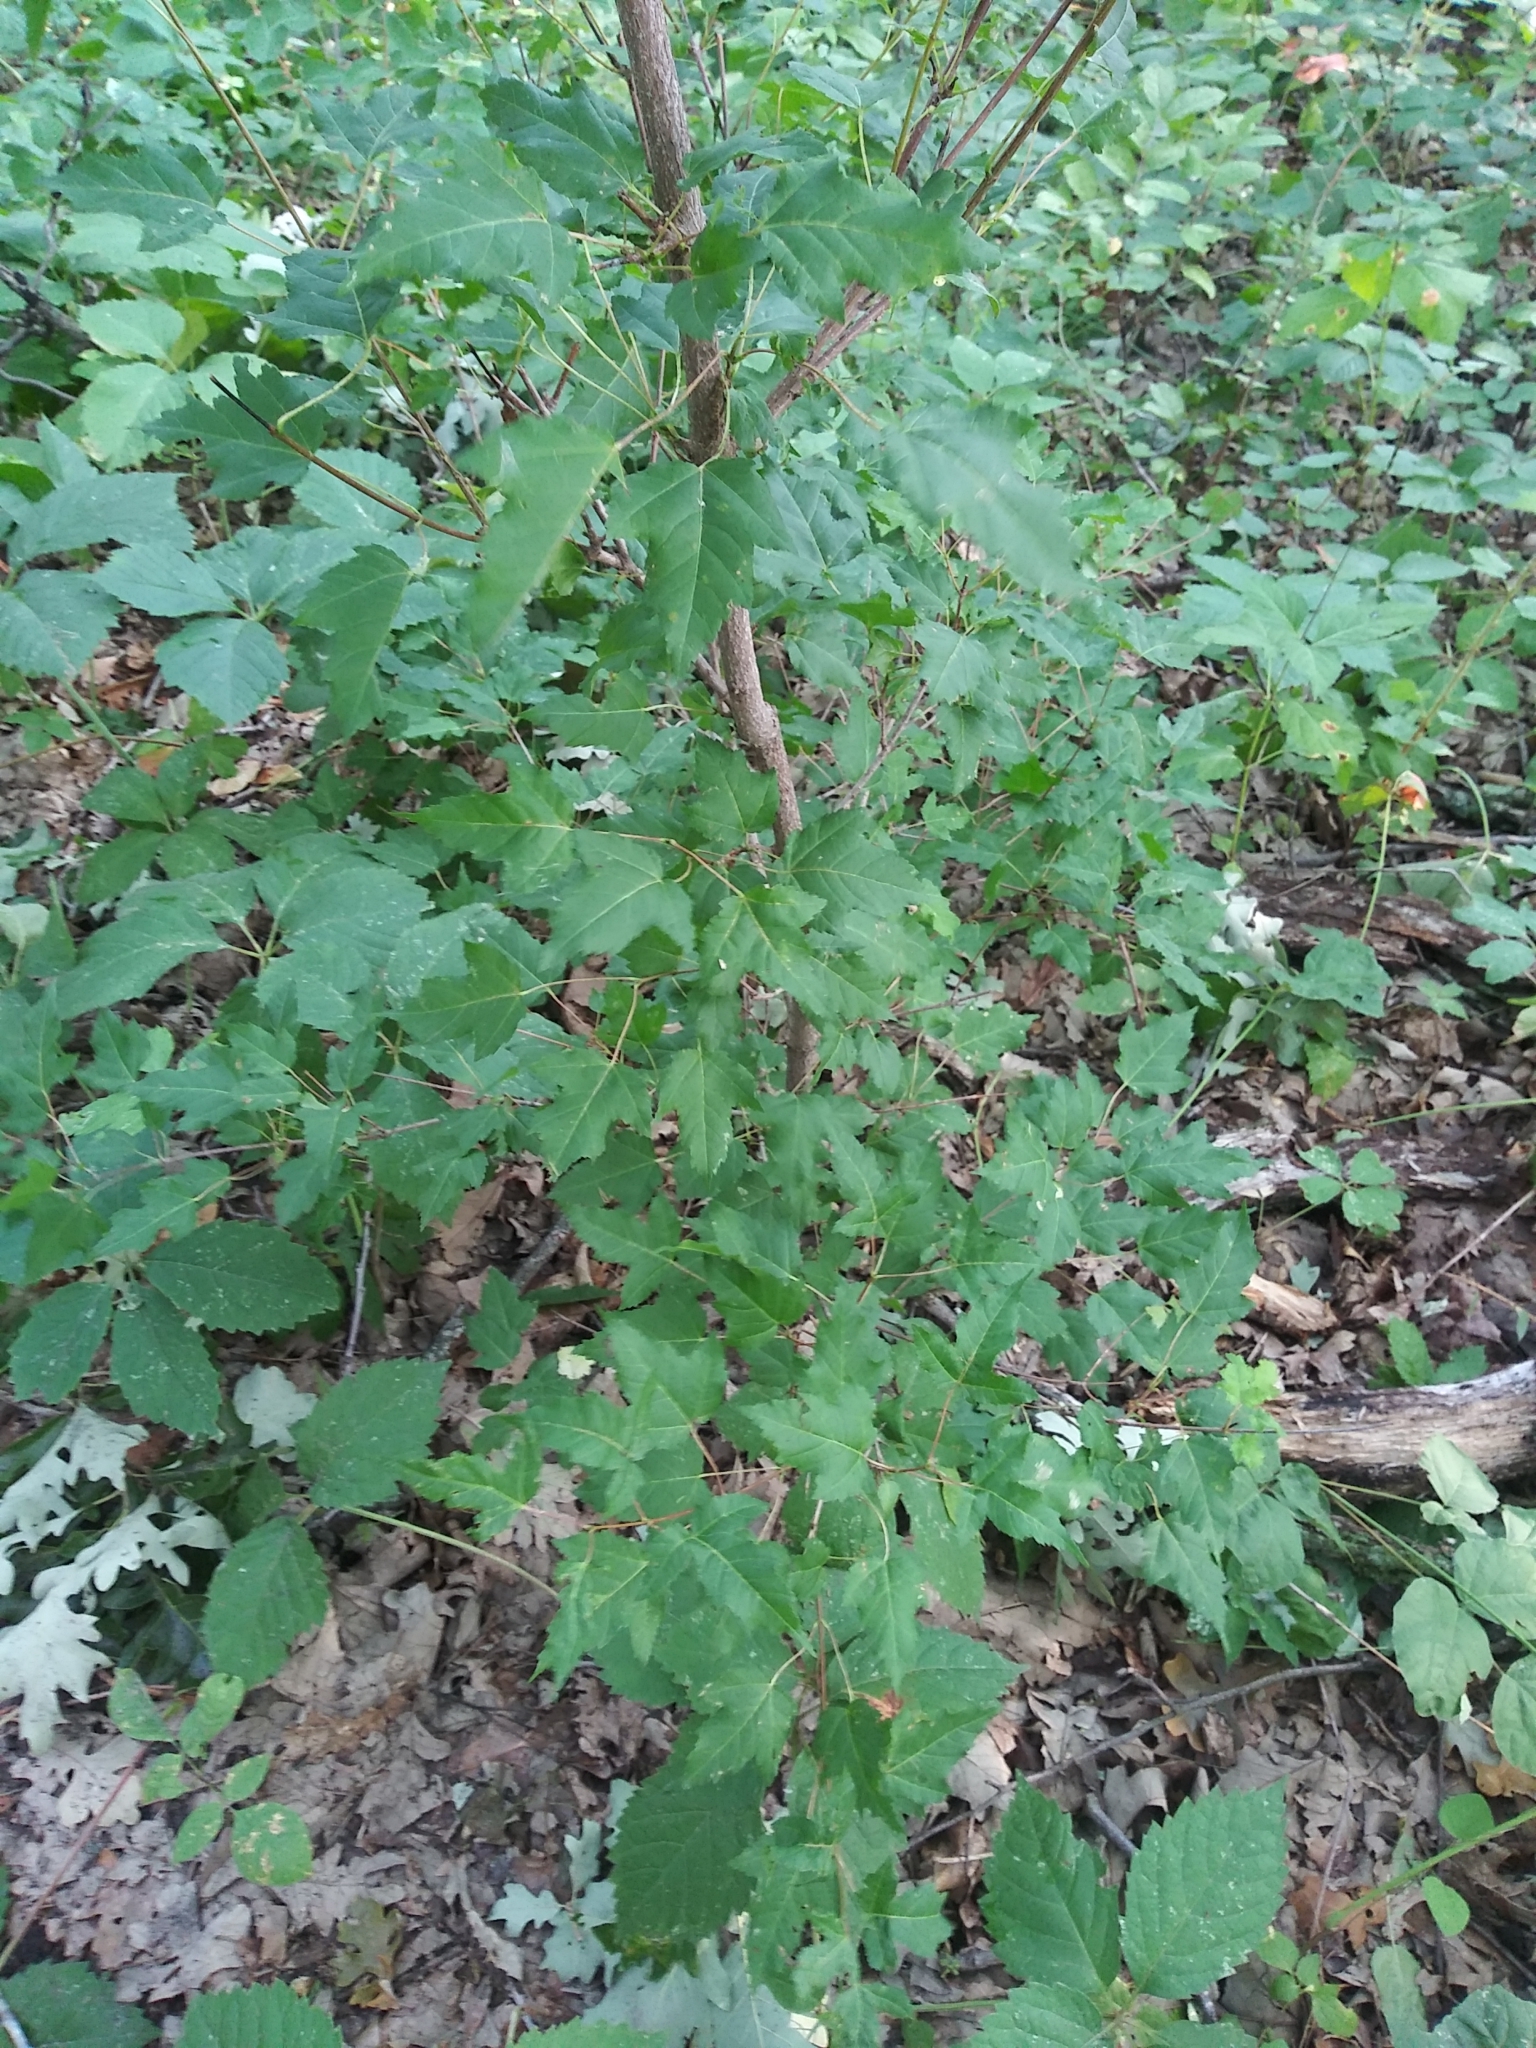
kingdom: Plantae
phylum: Tracheophyta
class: Magnoliopsida
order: Sapindales
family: Sapindaceae
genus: Acer
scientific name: Acer tataricum
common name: Tartar maple
